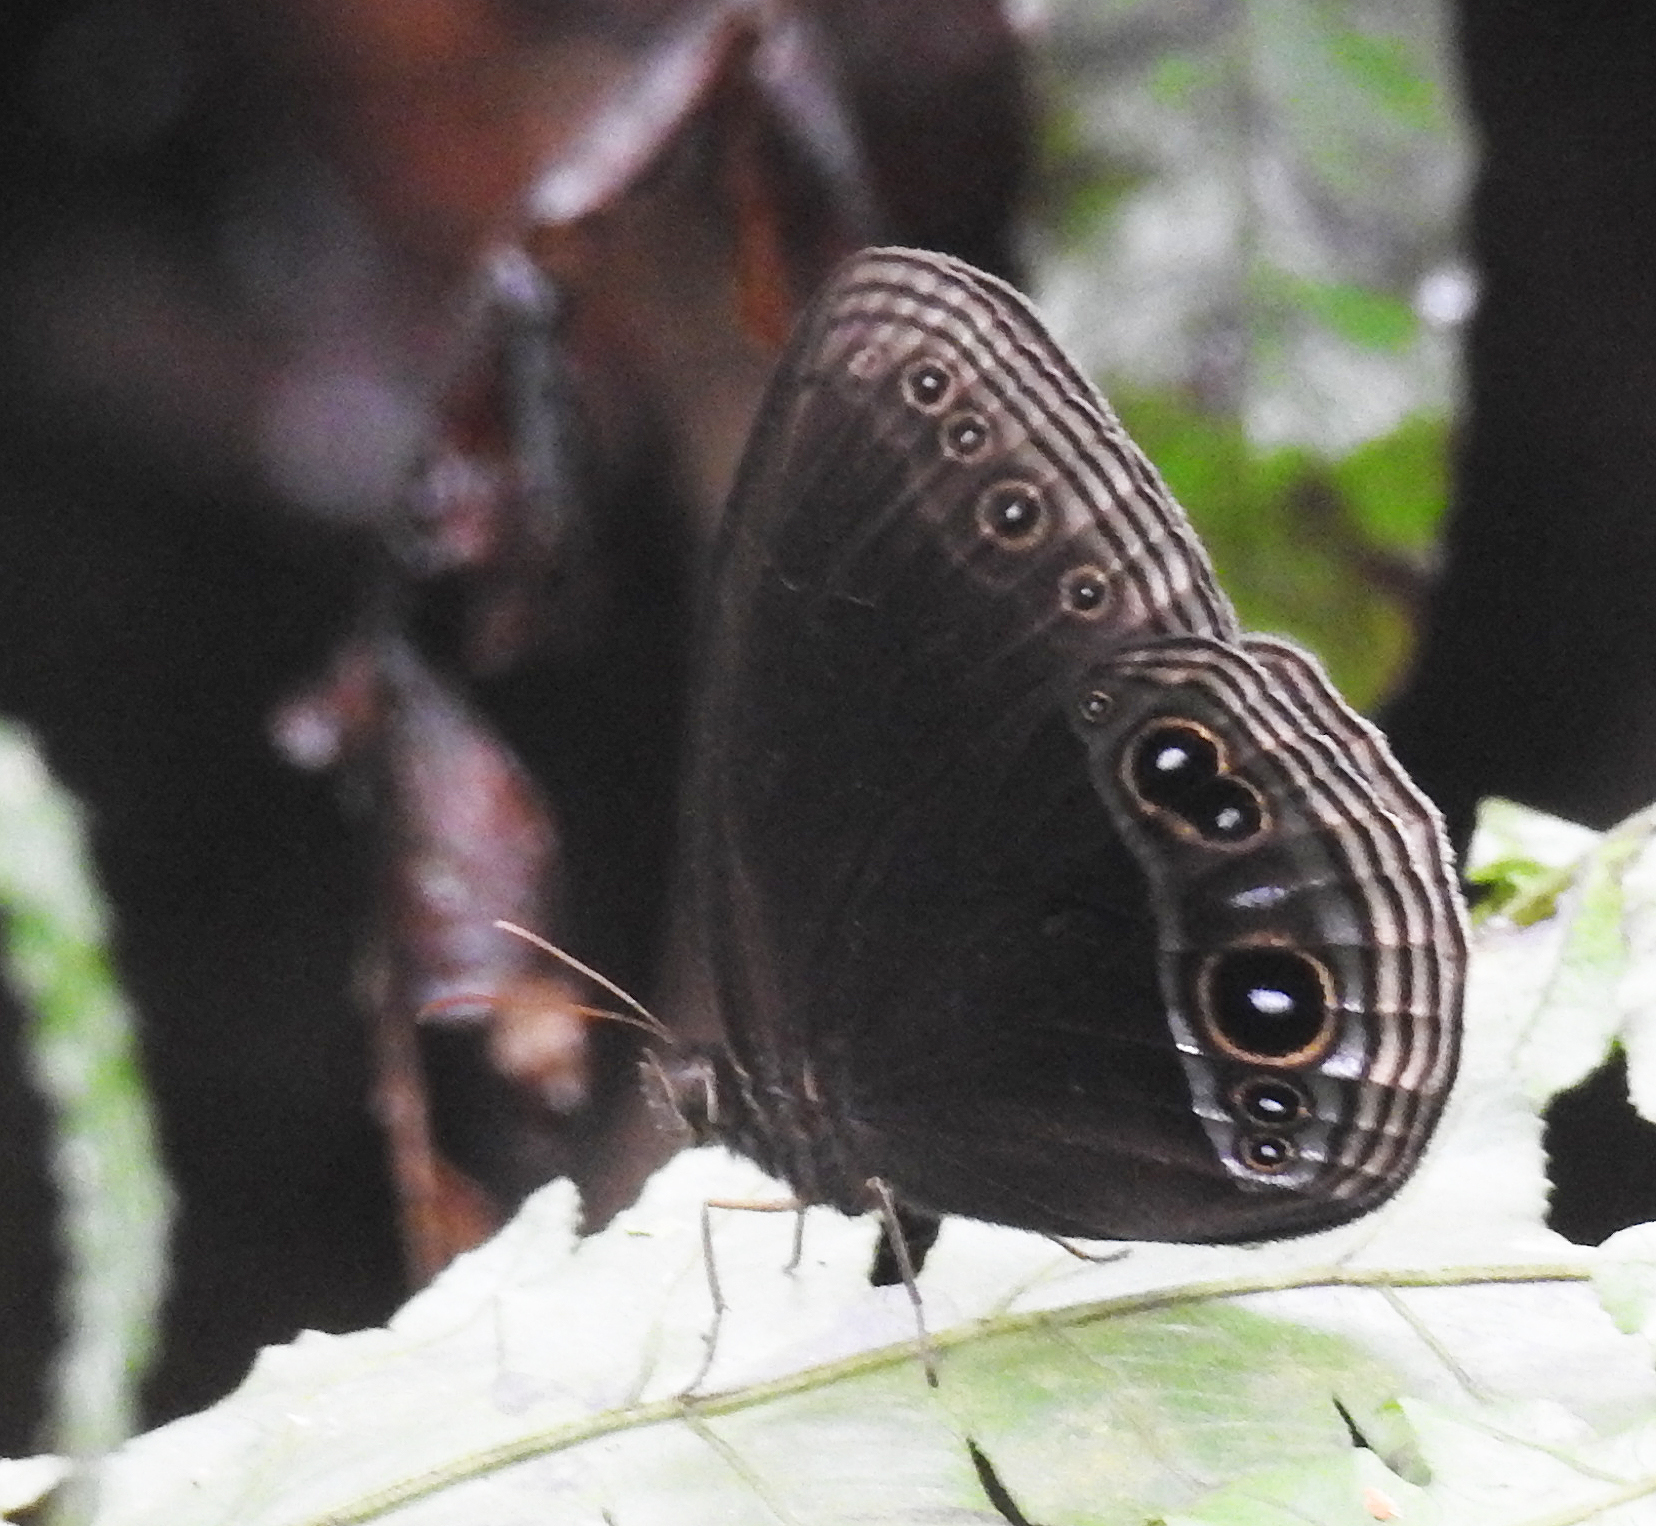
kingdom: Animalia
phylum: Arthropoda
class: Insecta
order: Lepidoptera
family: Nymphalidae
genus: Zipaetis
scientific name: Zipaetis scylax
